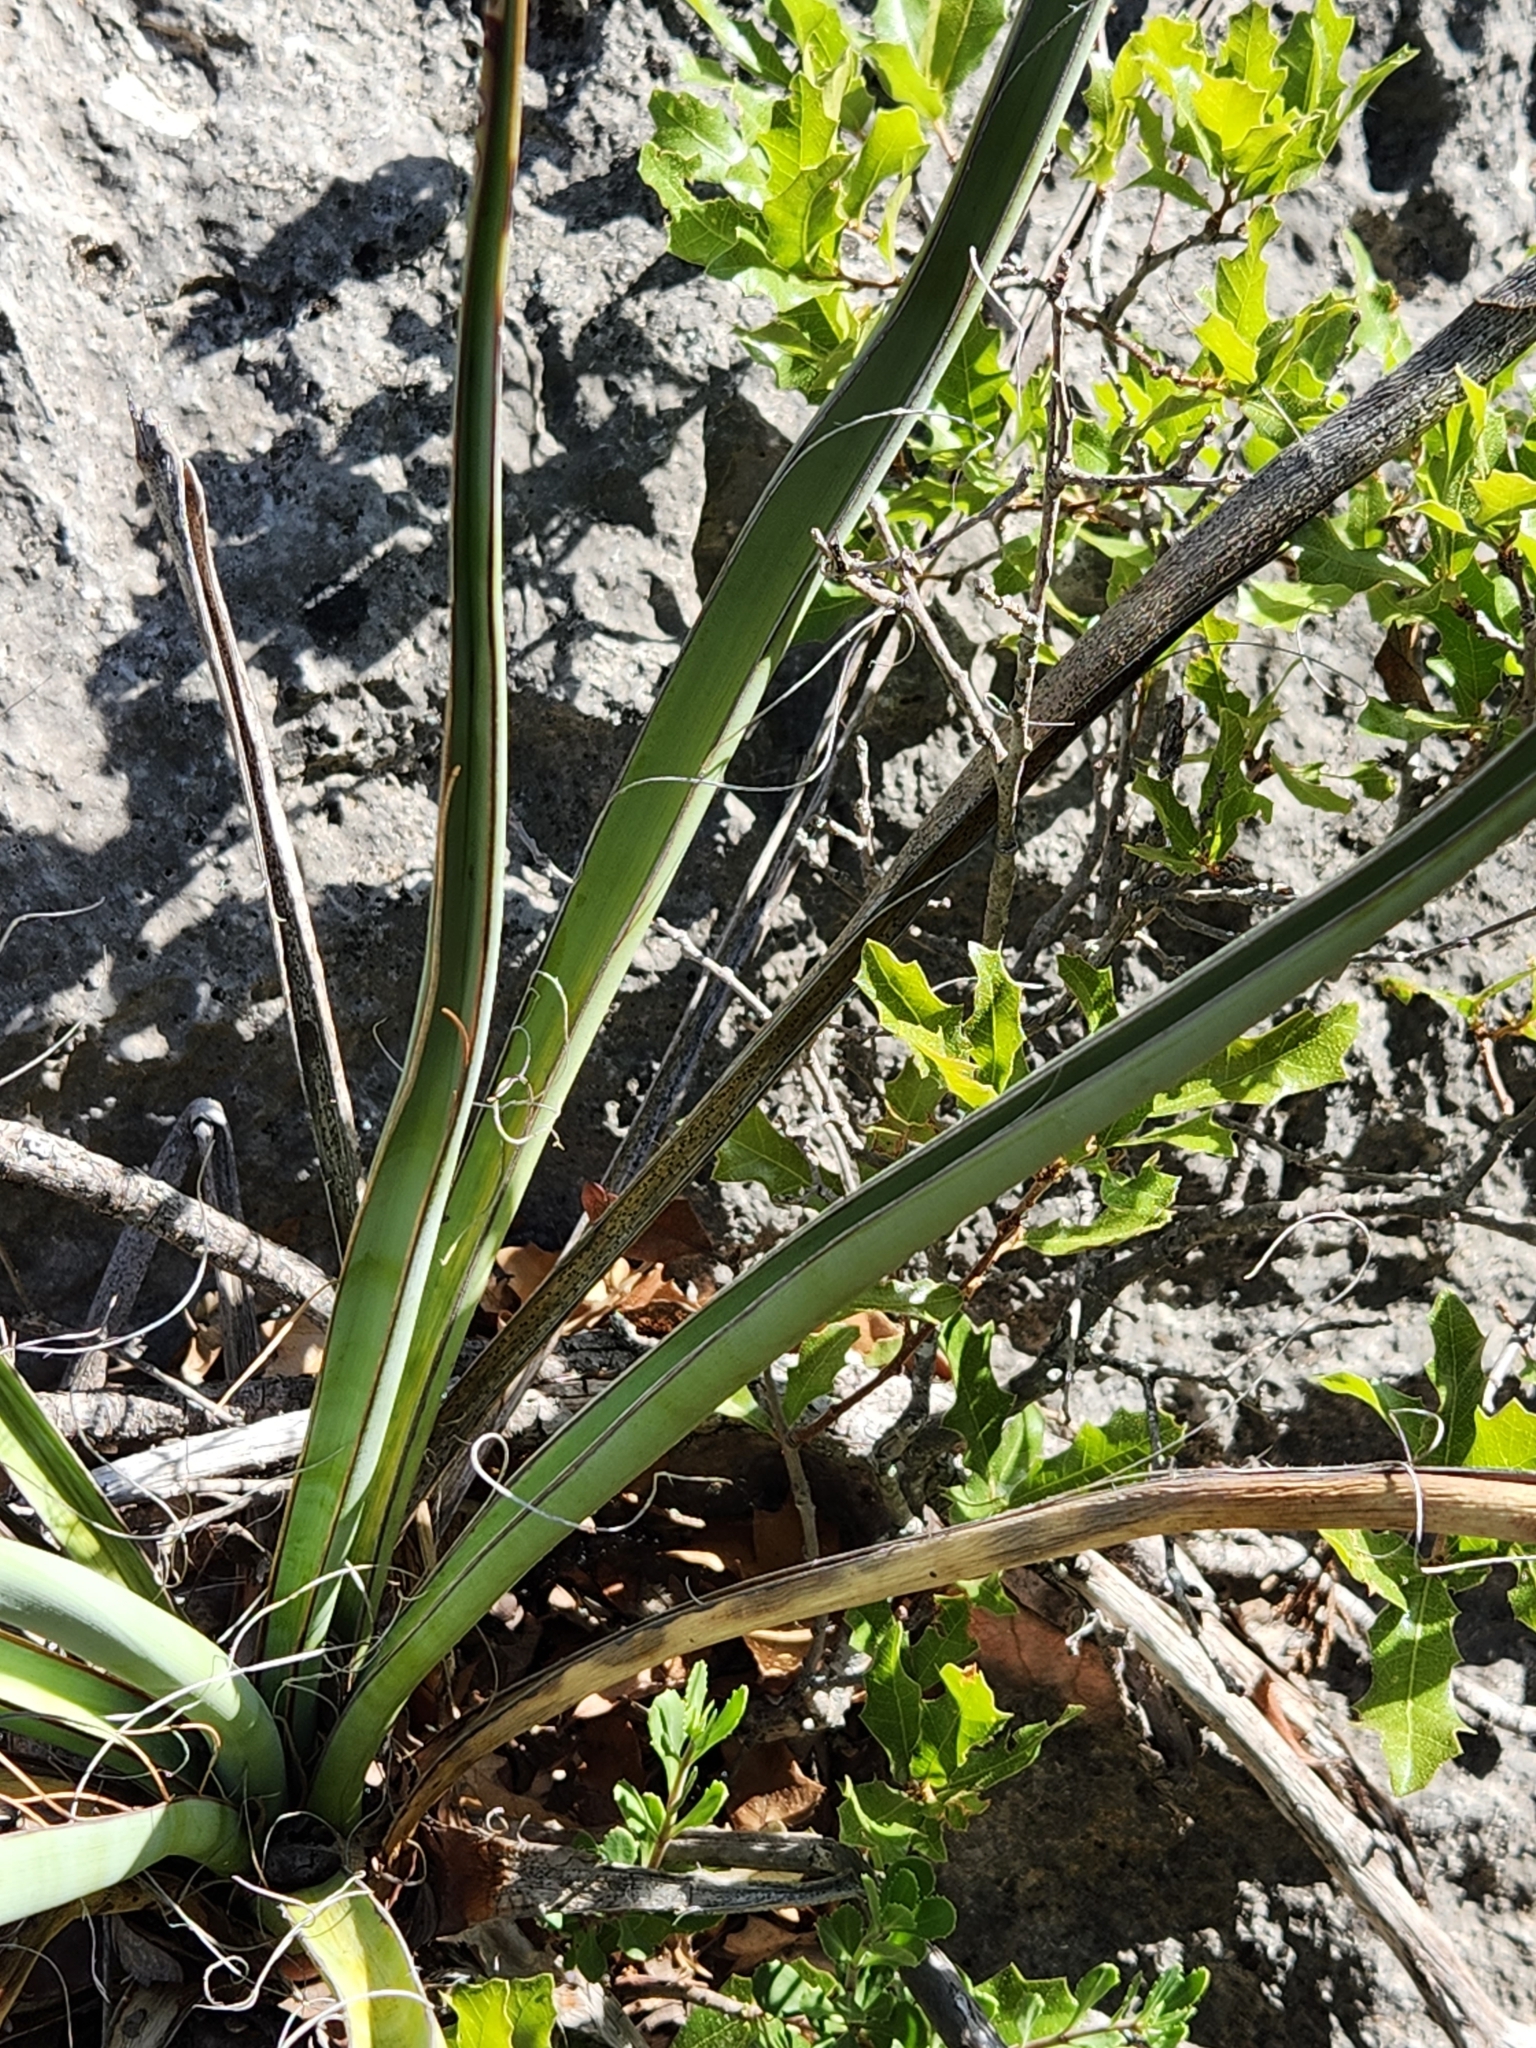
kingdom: Plantae
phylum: Tracheophyta
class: Liliopsida
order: Asparagales
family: Asparagaceae
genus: Yucca
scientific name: Yucca treculiana
